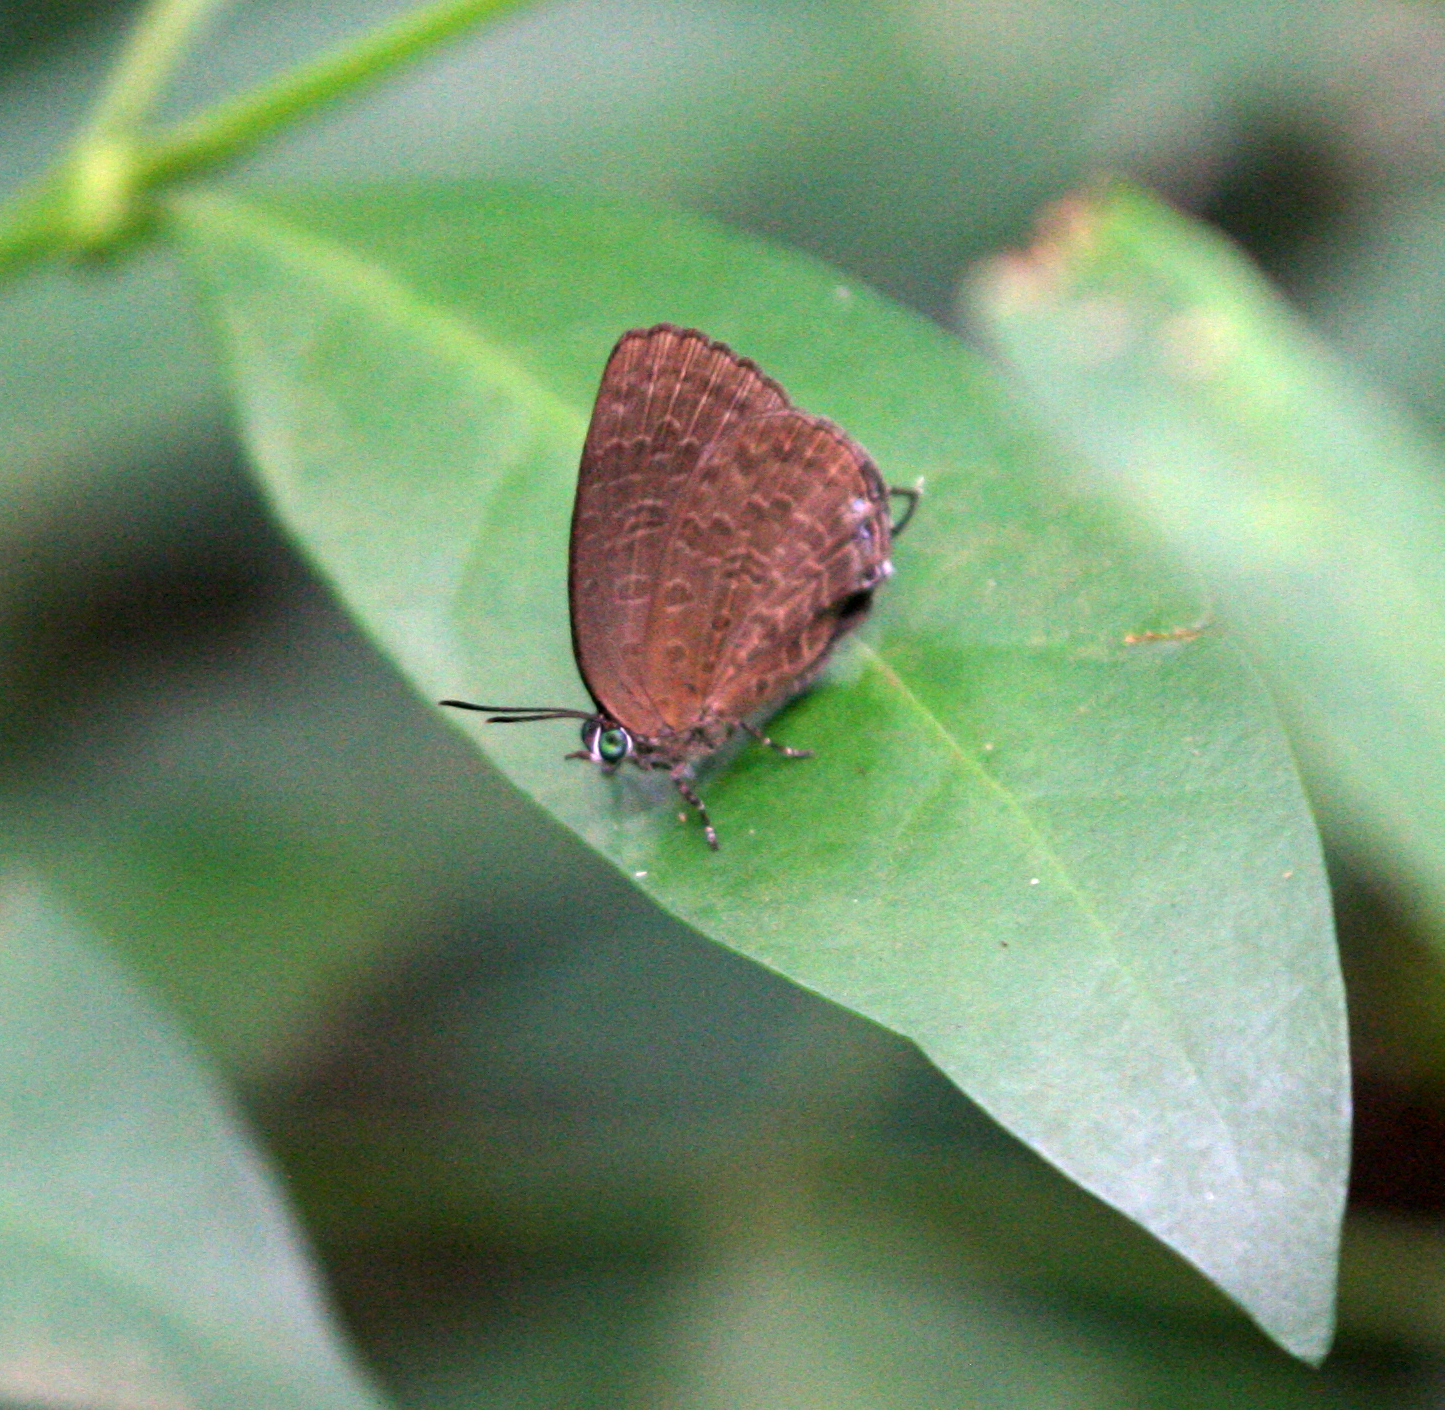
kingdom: Animalia
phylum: Arthropoda
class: Insecta
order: Lepidoptera
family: Lycaenidae
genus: Arhopala
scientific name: Arhopala elopura
